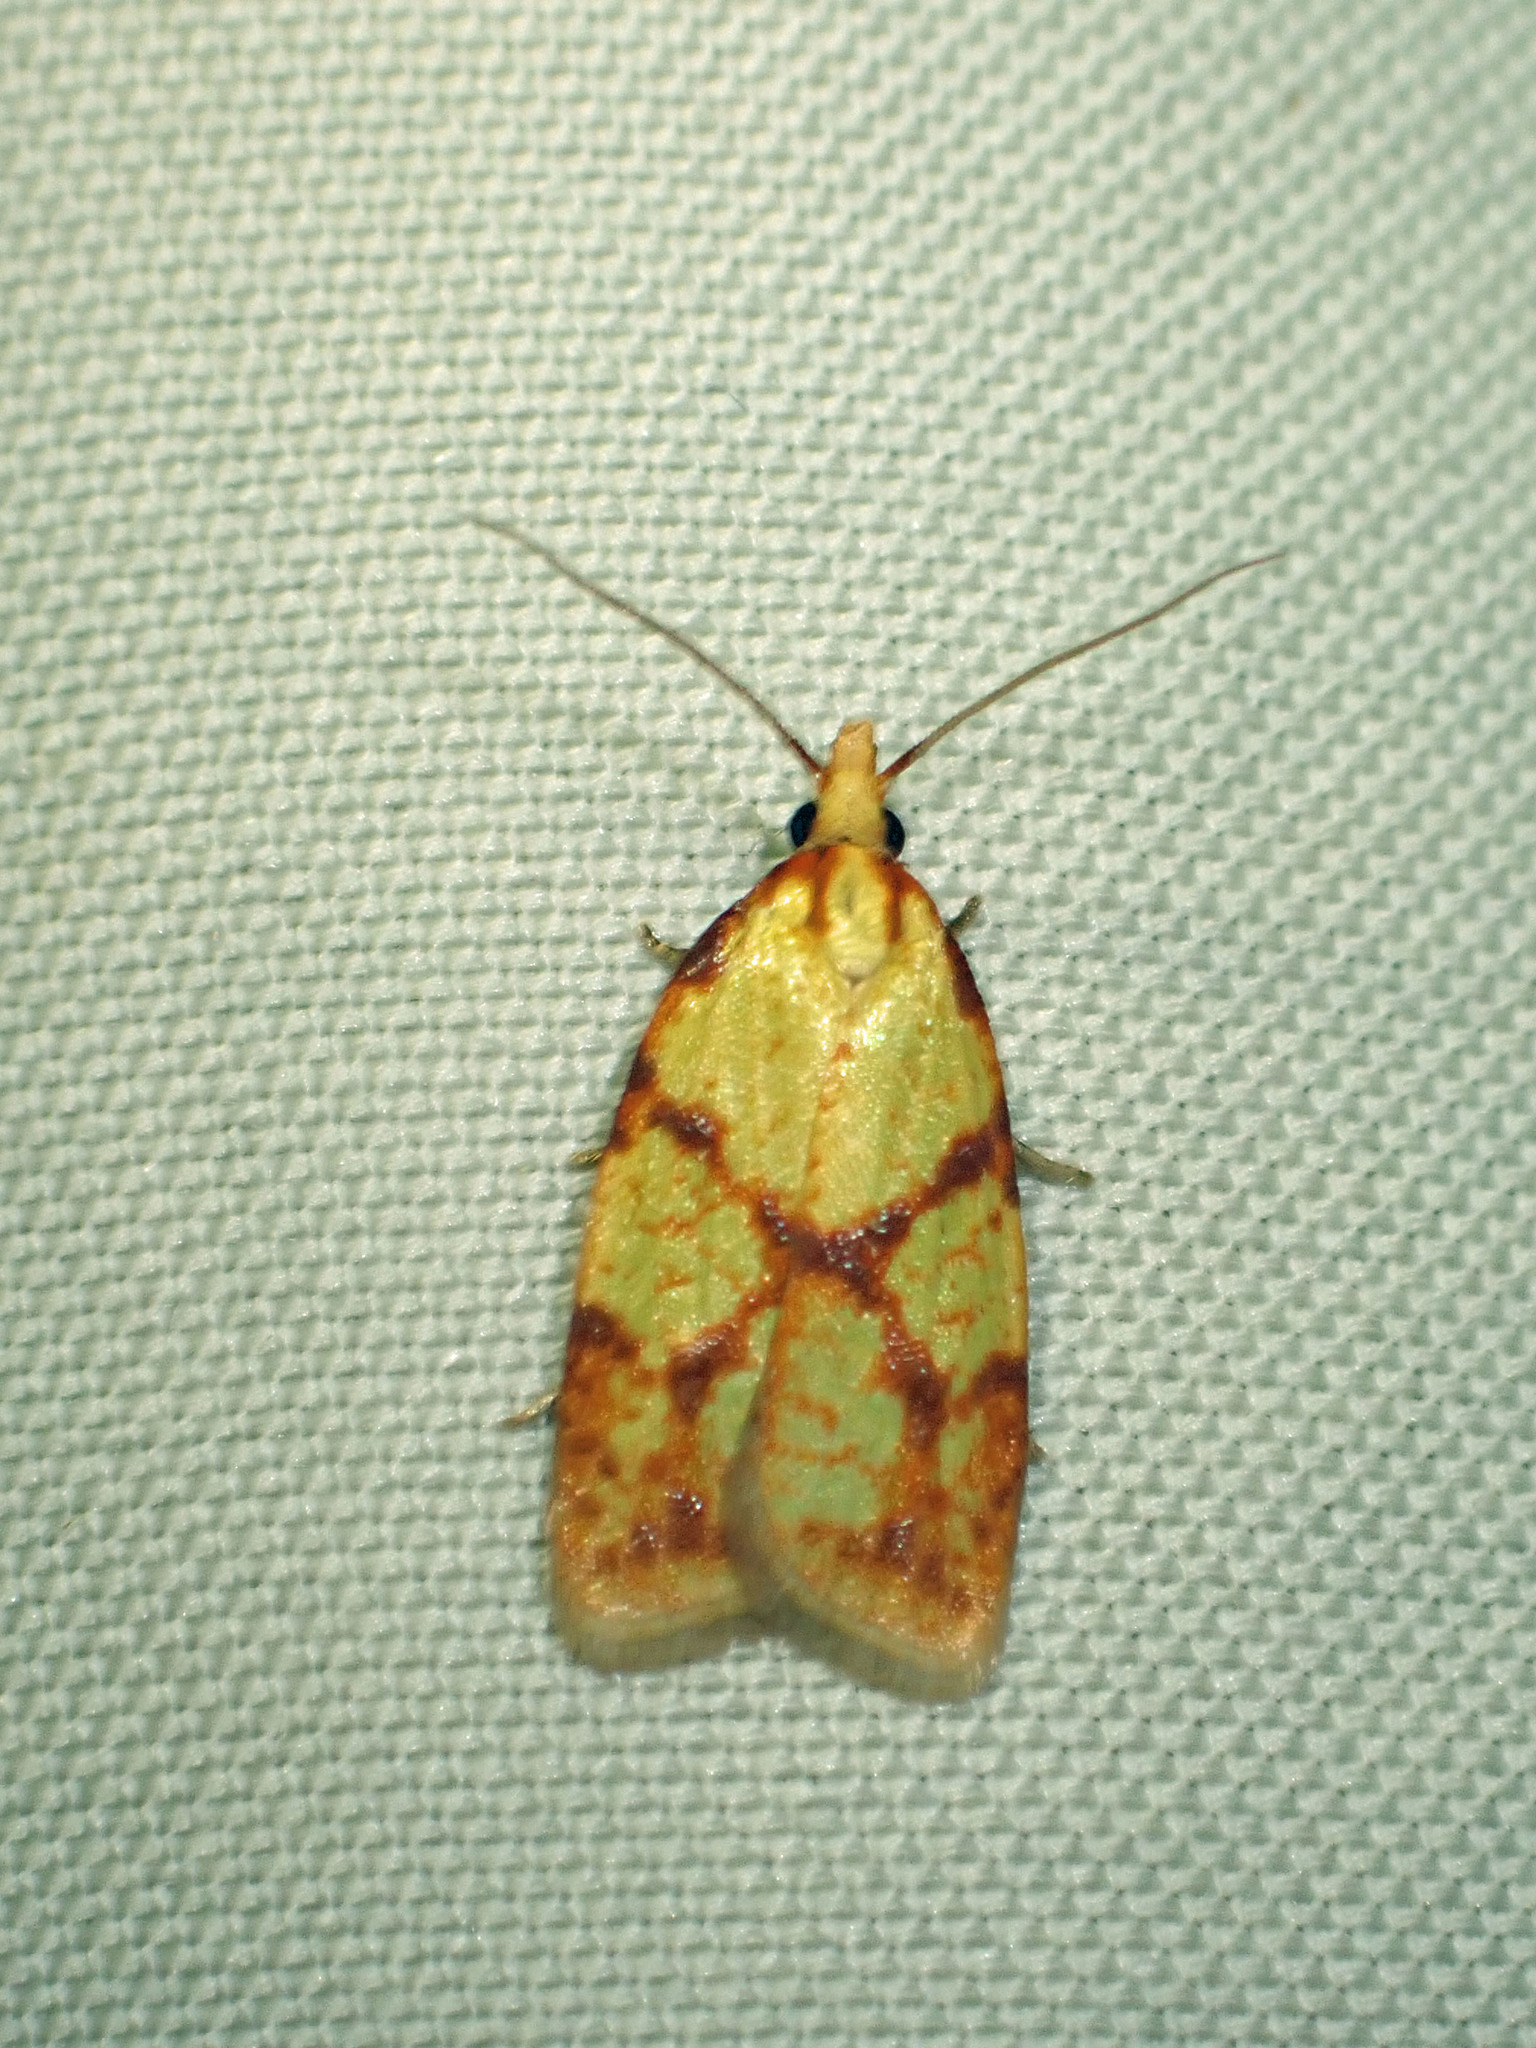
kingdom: Animalia
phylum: Arthropoda
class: Insecta
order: Lepidoptera
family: Tortricidae
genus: Sparganothis
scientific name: Sparganothis sulfureana
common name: Sparganothis fruitworm moth
